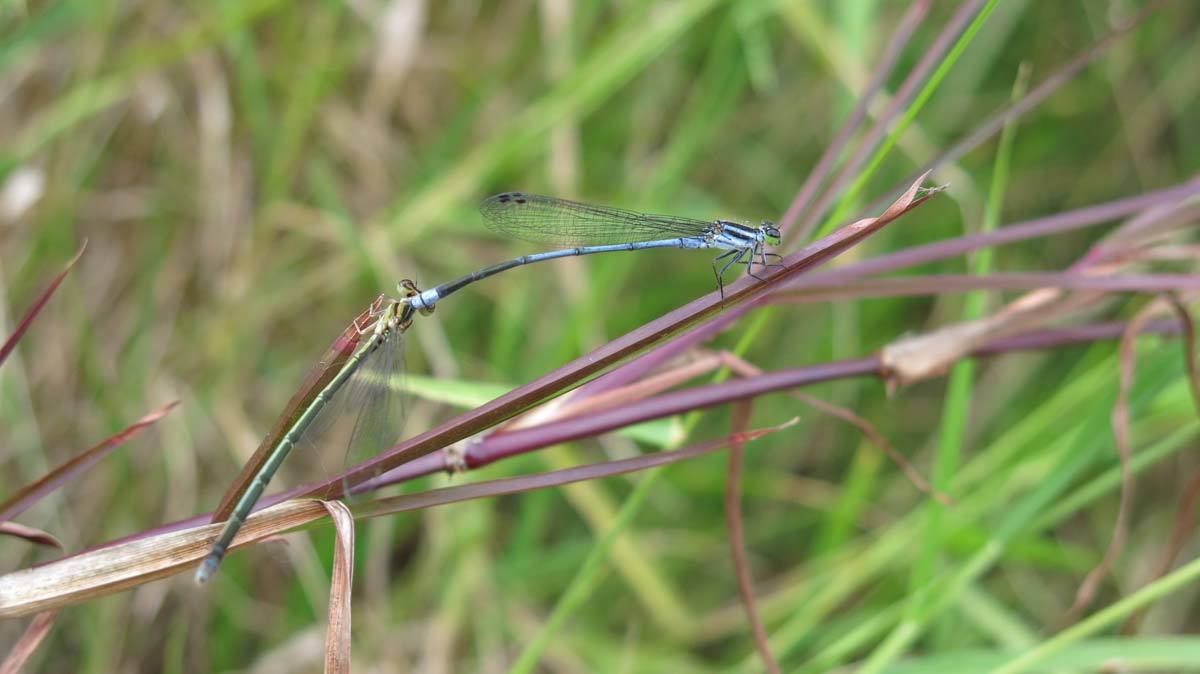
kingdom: Animalia
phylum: Arthropoda
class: Insecta
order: Odonata
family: Coenagrionidae
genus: Pseudagrion
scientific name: Pseudagrion kersteni
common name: Powder-faced sprite
